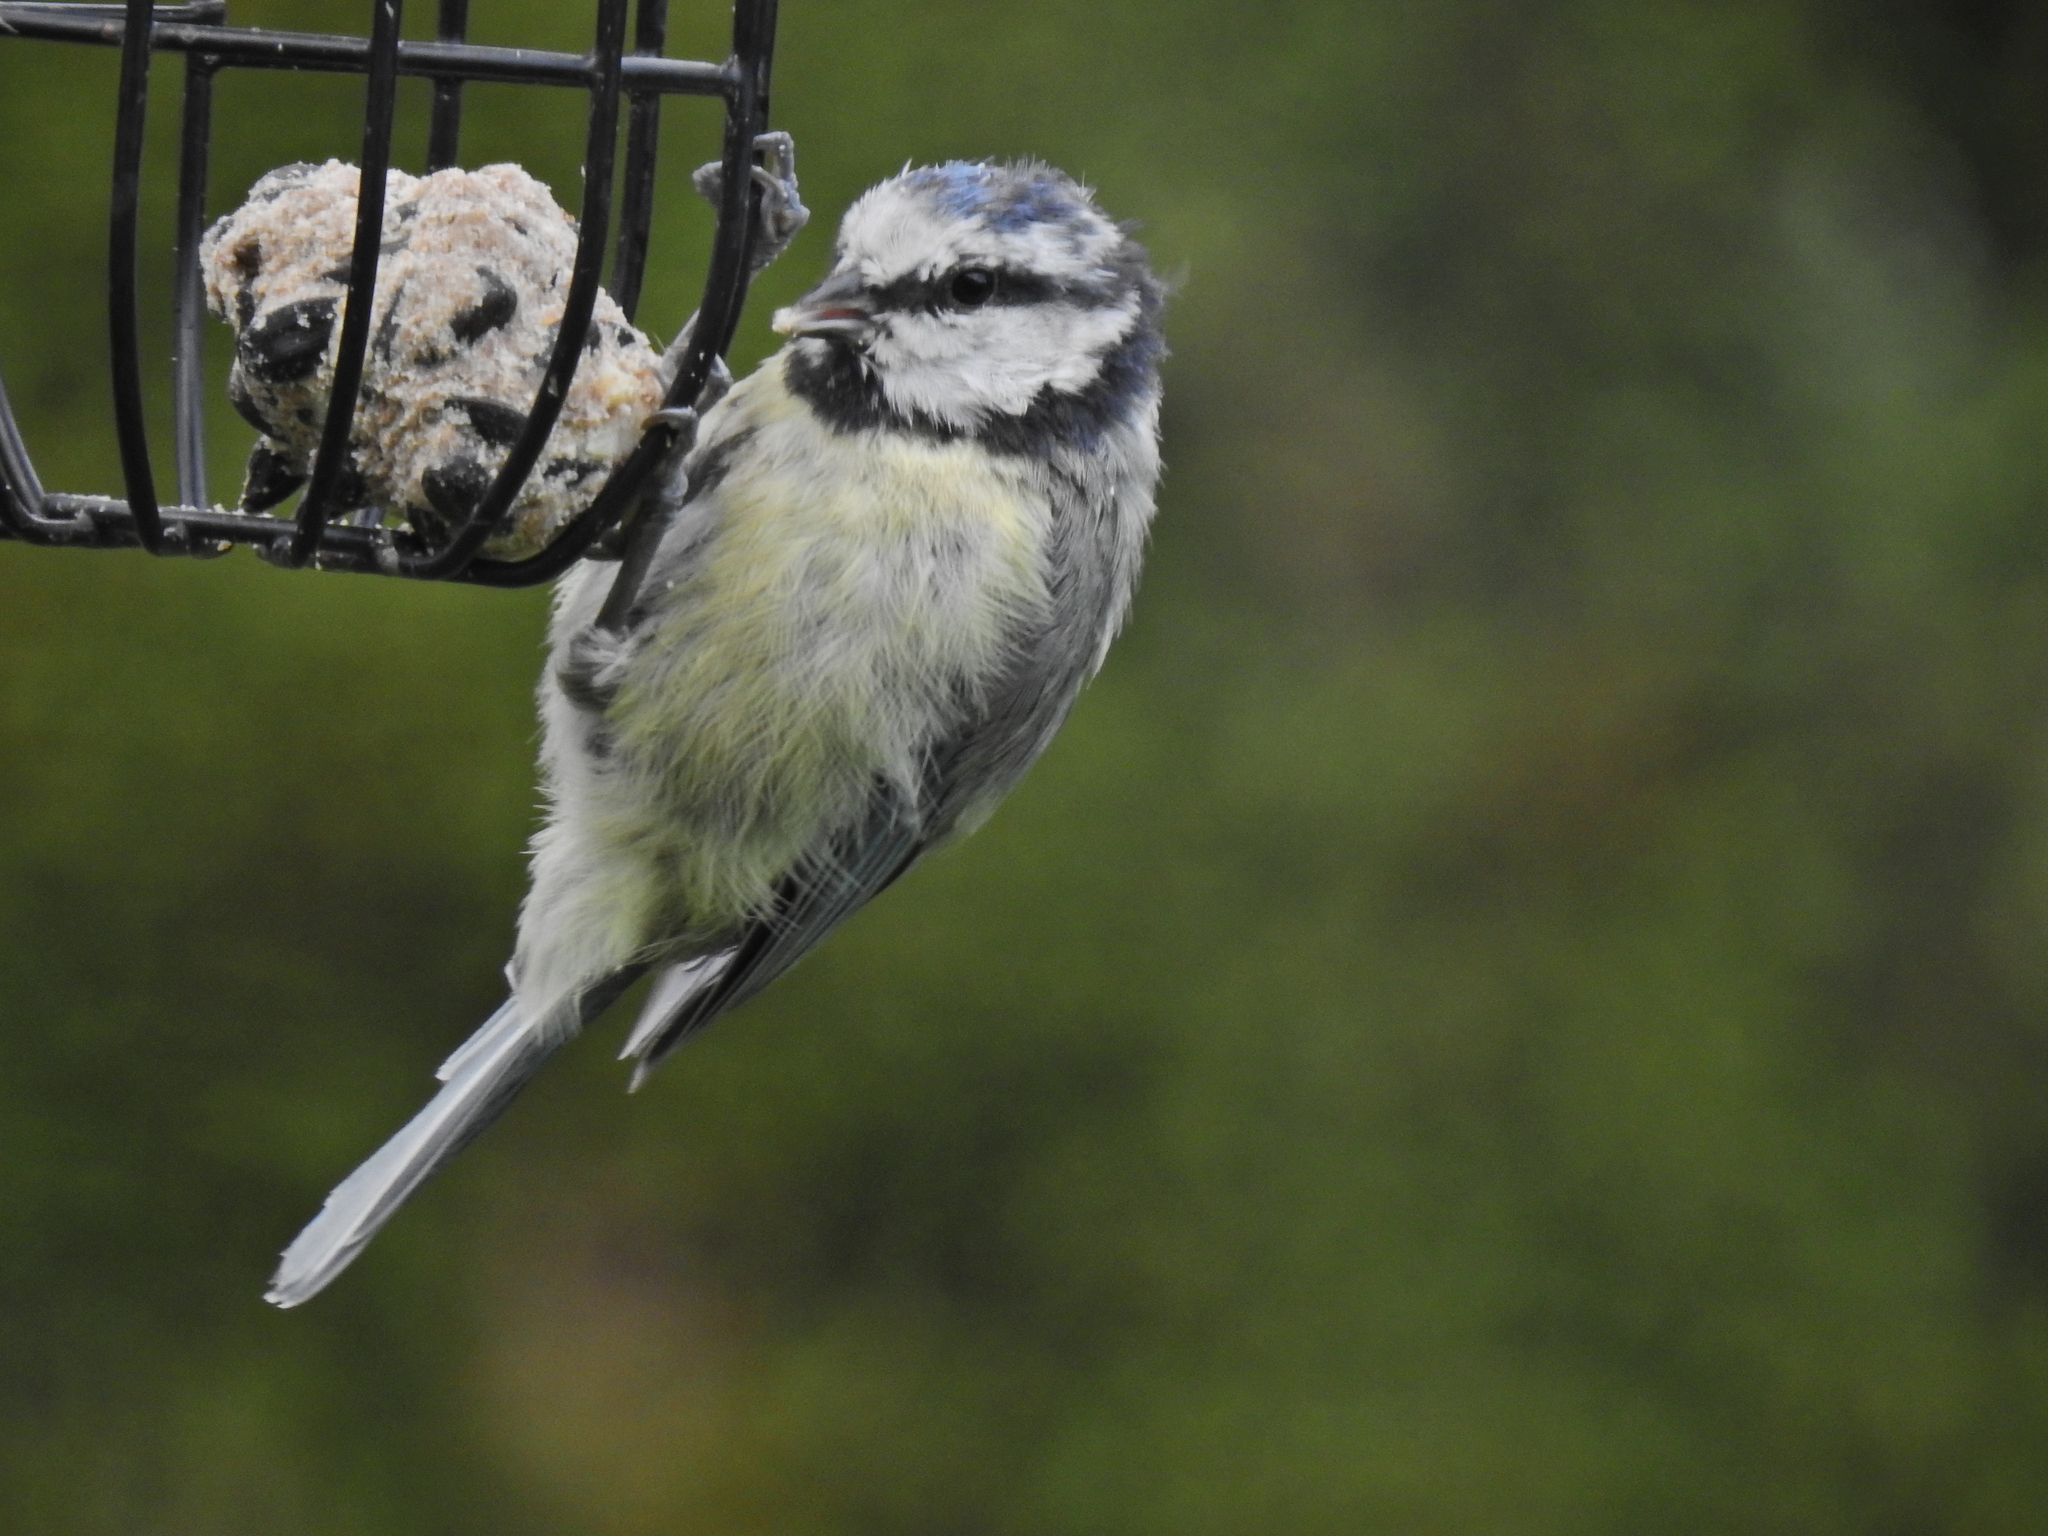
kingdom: Animalia
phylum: Chordata
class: Aves
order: Passeriformes
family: Paridae
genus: Cyanistes
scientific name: Cyanistes caeruleus
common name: Eurasian blue tit
